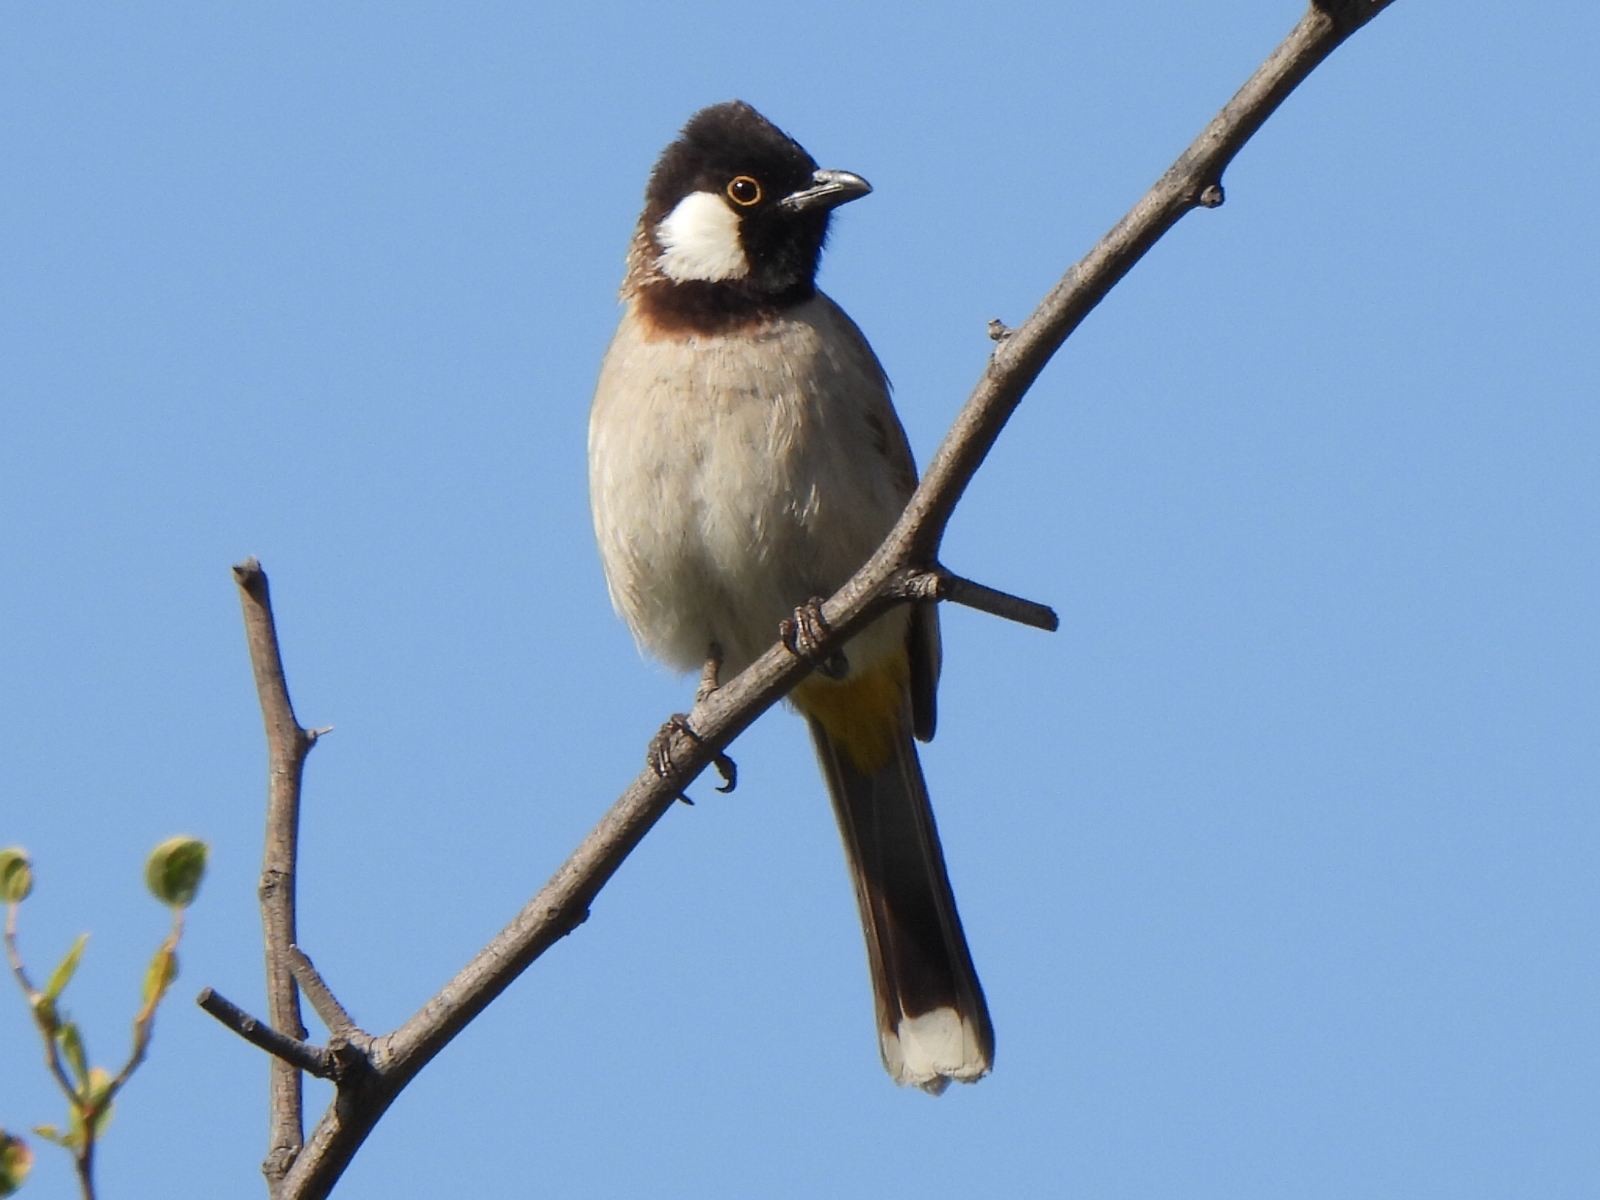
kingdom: Animalia
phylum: Chordata
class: Aves
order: Passeriformes
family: Pycnonotidae
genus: Pycnonotus
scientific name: Pycnonotus leucotis
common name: White-eared bulbul
